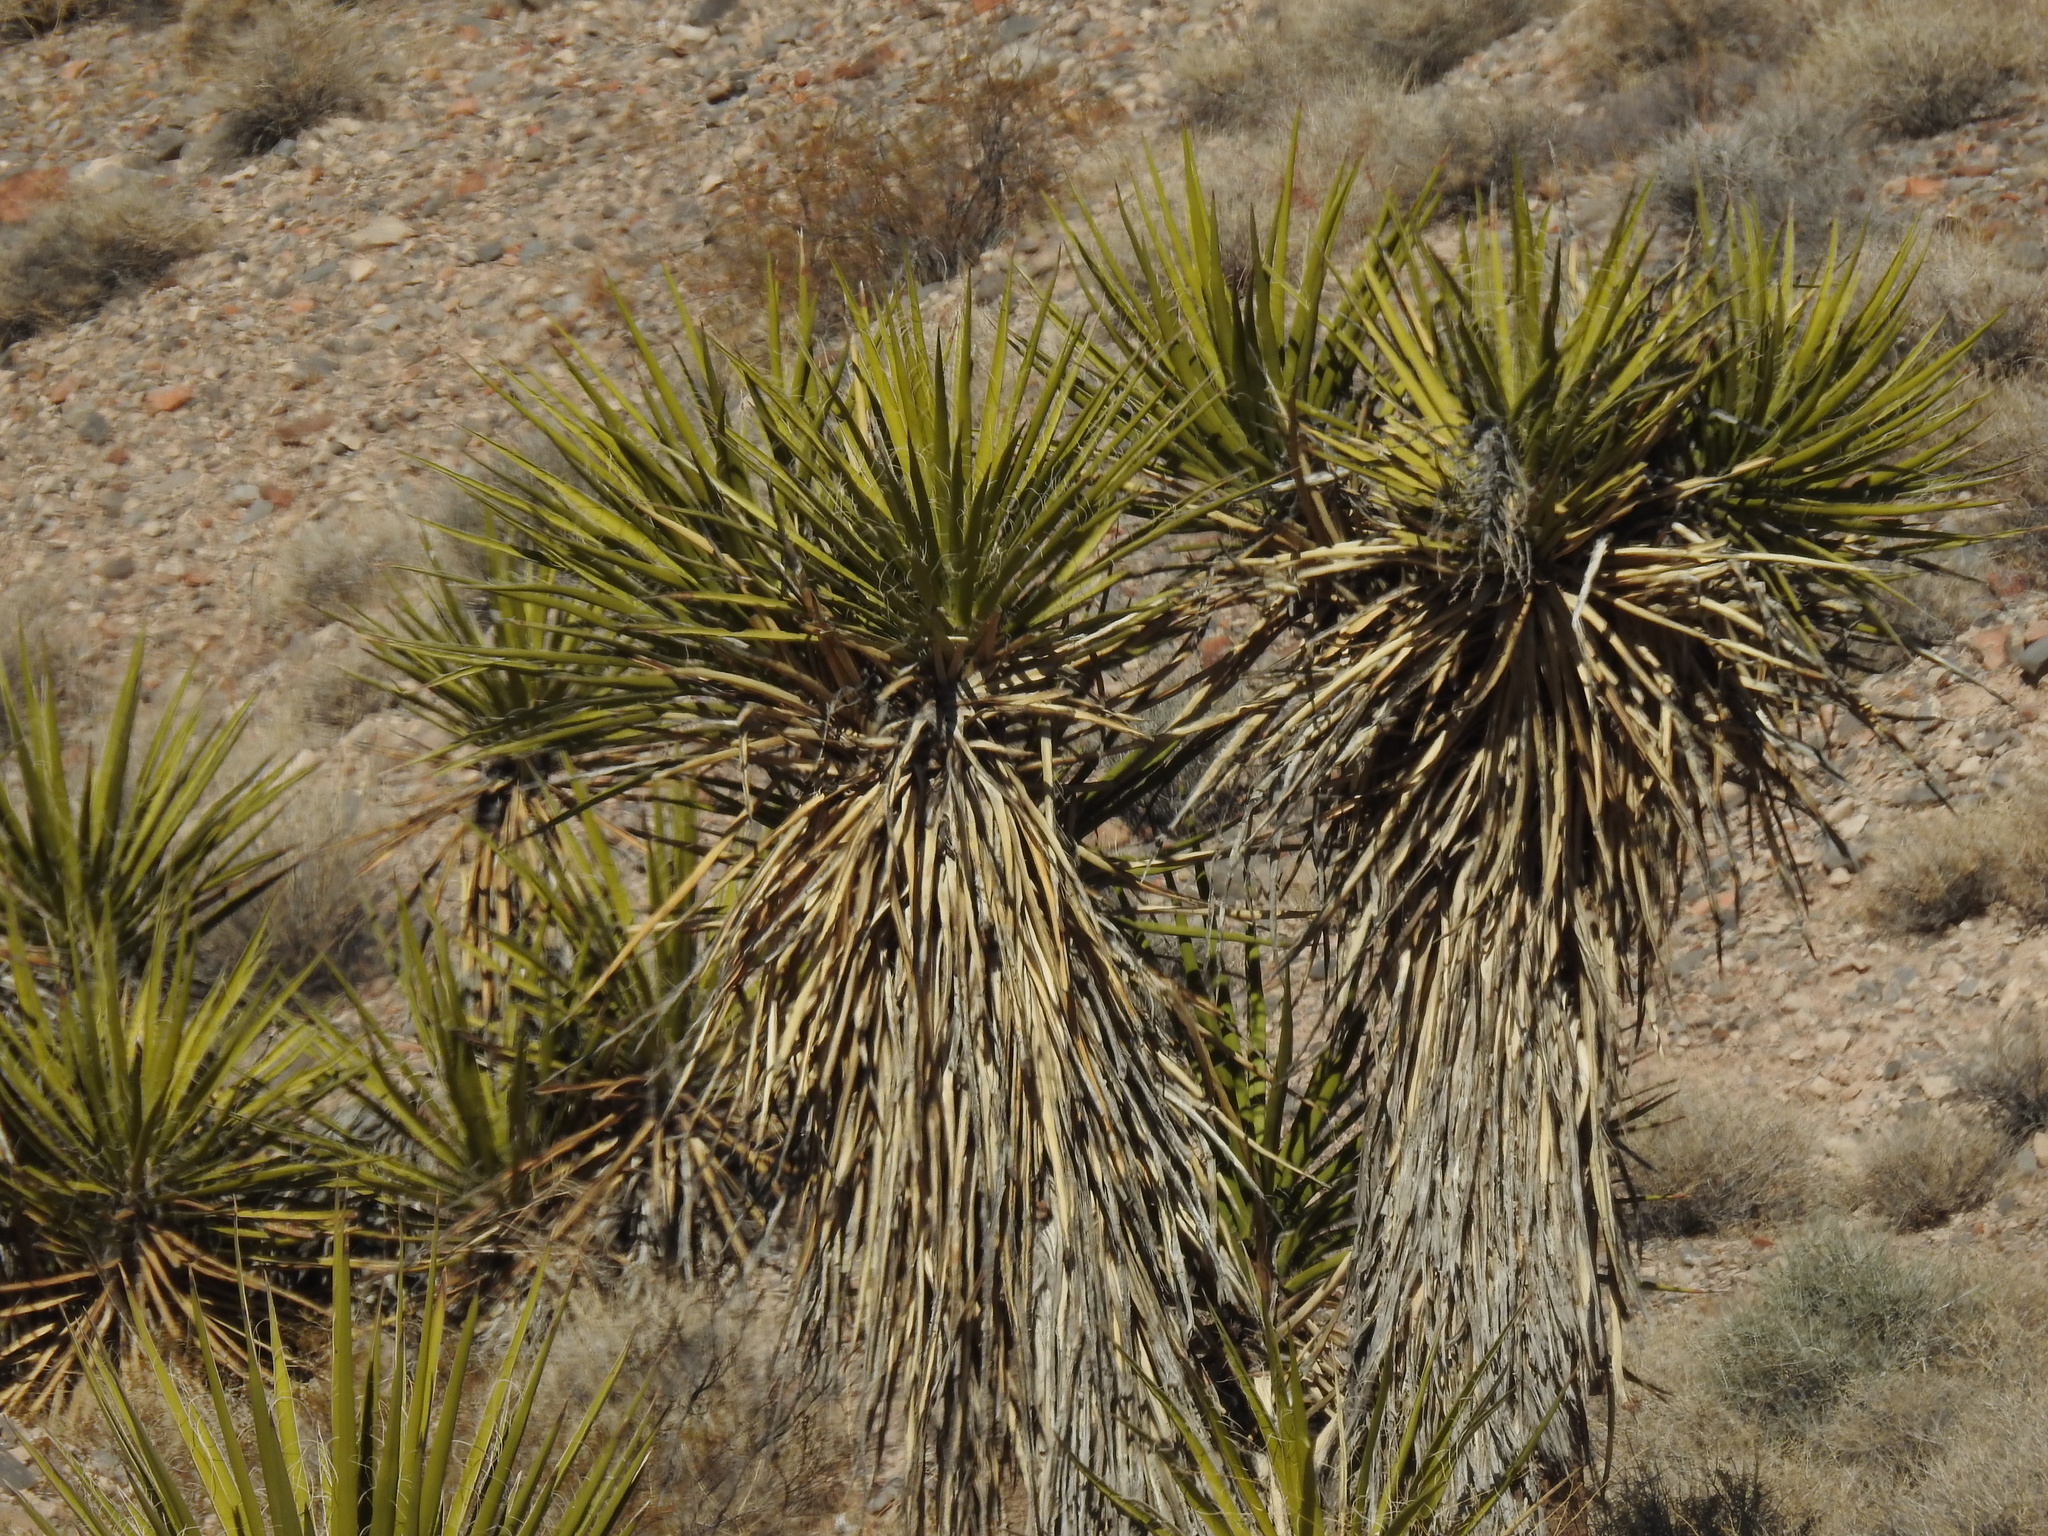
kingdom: Plantae
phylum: Tracheophyta
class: Liliopsida
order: Asparagales
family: Asparagaceae
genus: Yucca
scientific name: Yucca schidigera
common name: Mojave yucca
